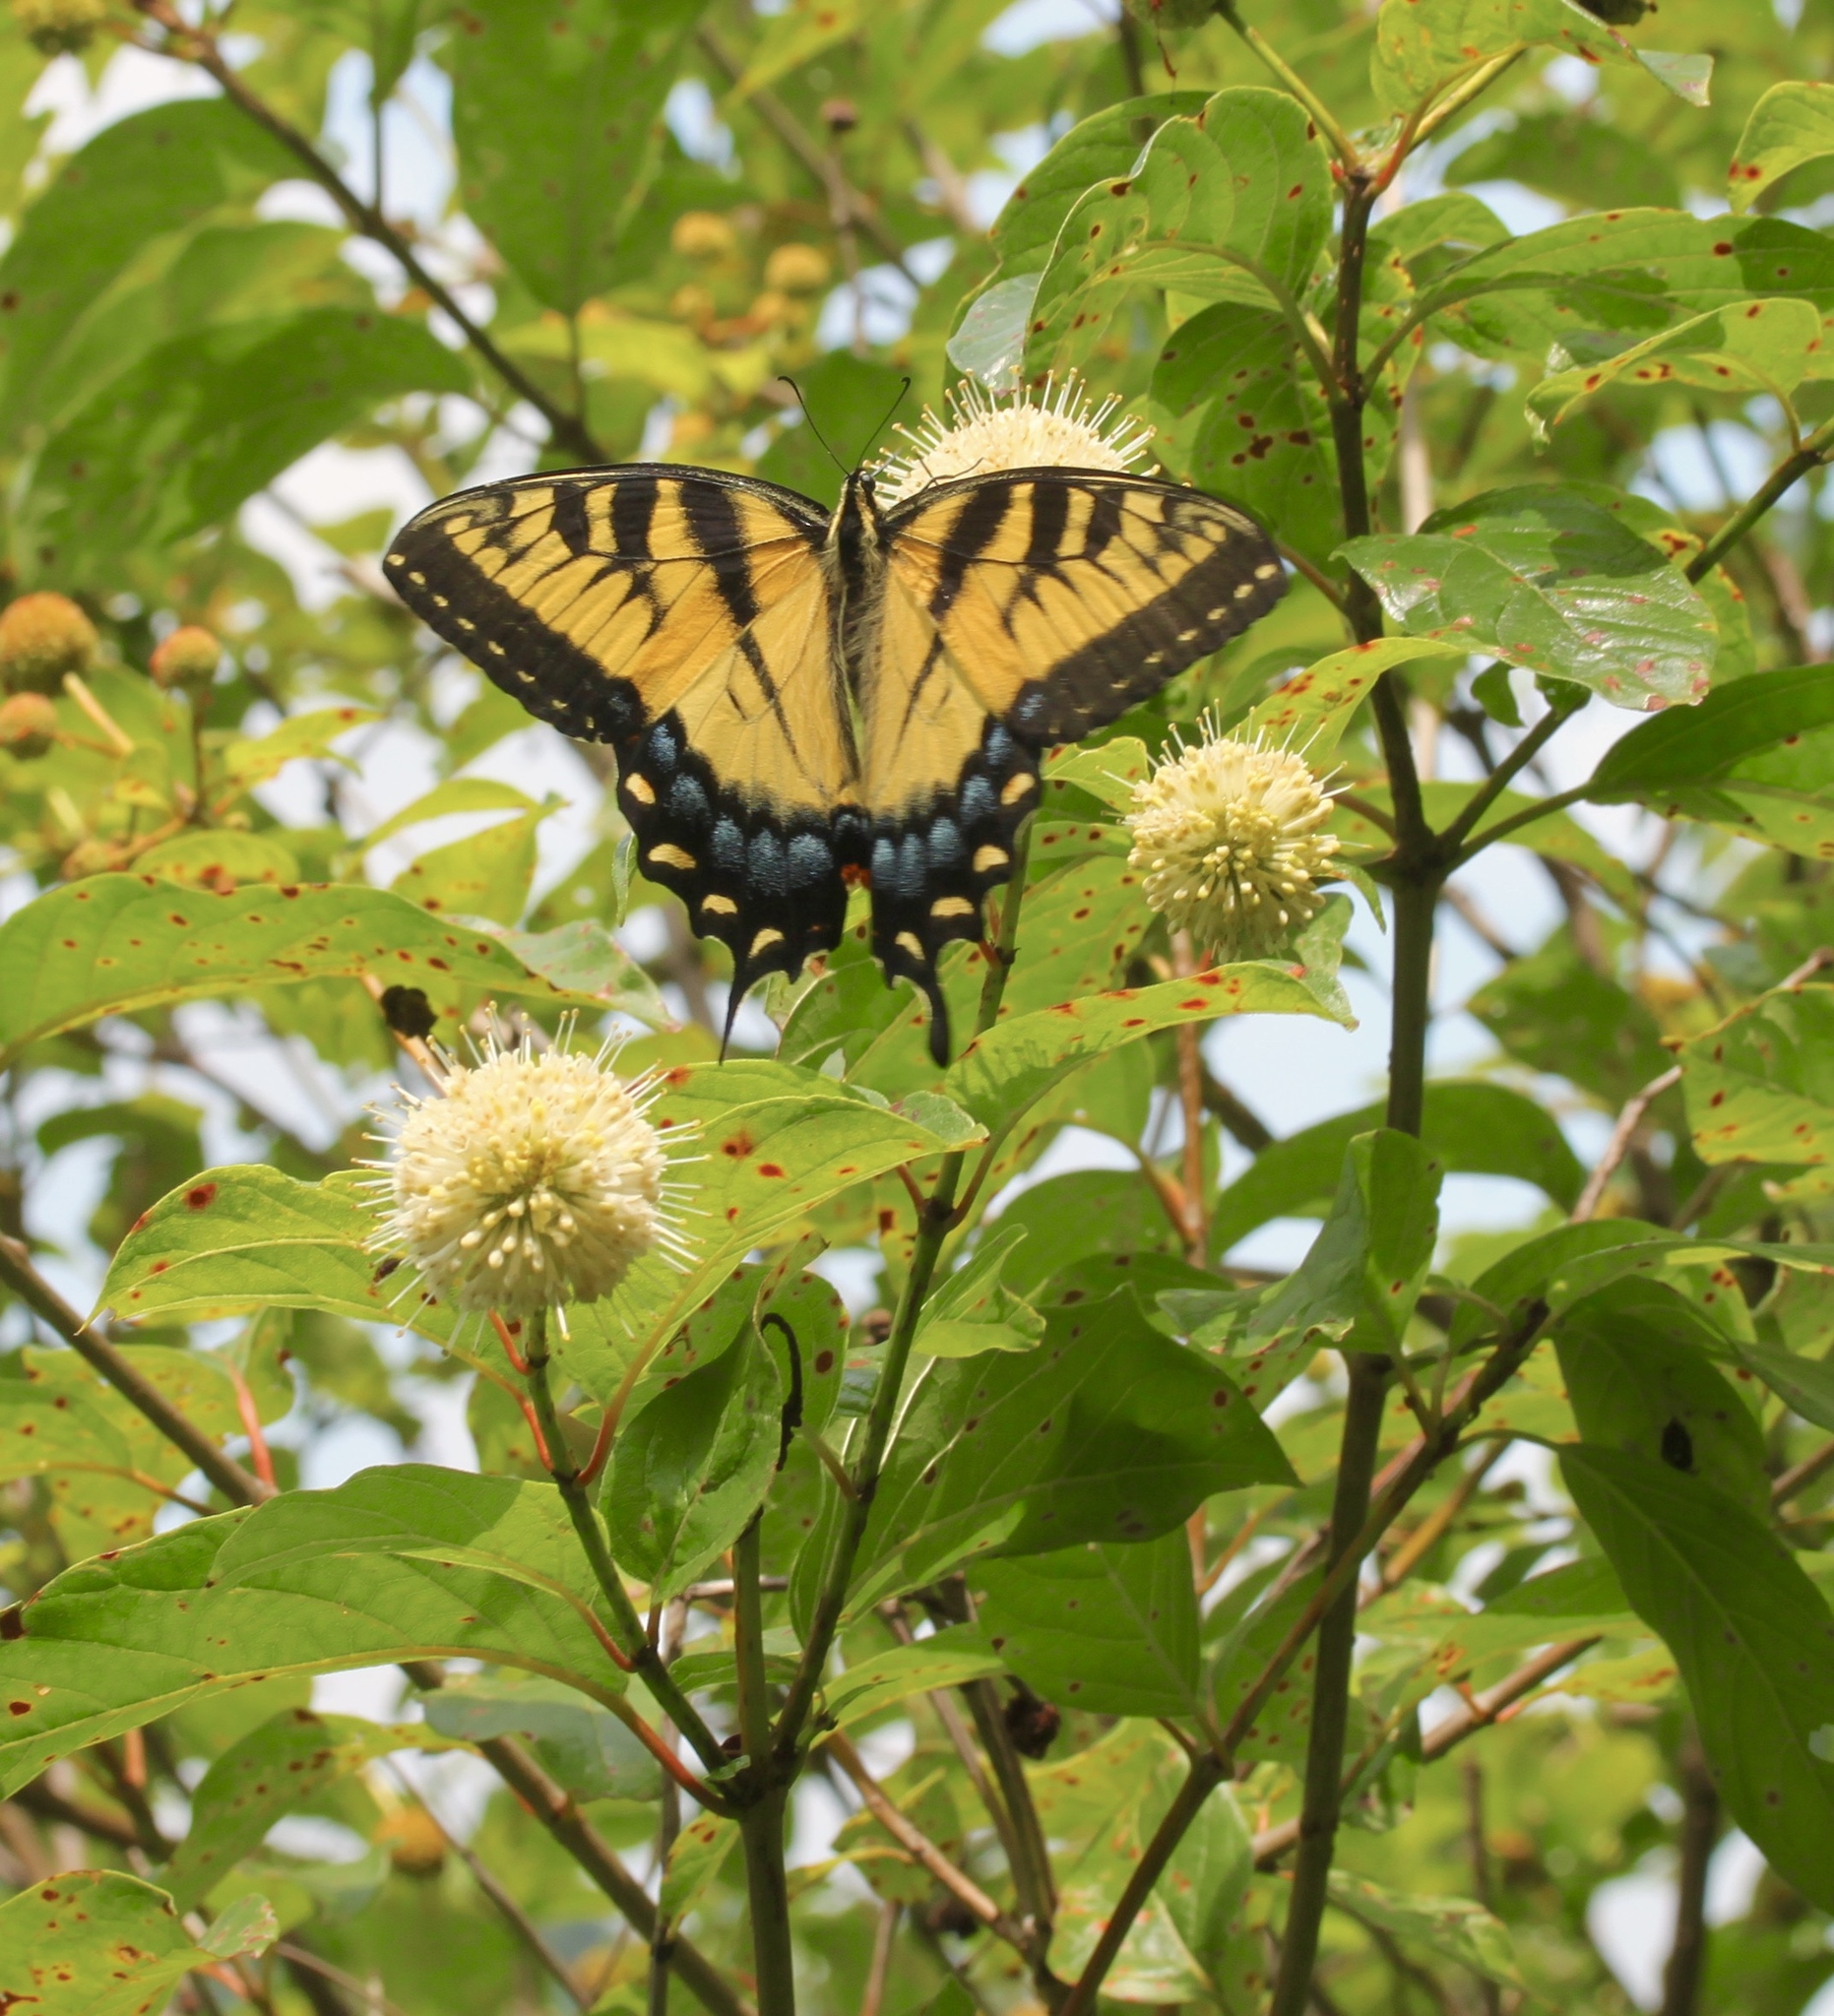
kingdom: Animalia
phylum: Arthropoda
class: Insecta
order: Lepidoptera
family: Papilionidae
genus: Papilio
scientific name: Papilio glaucus
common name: Tiger swallowtail
